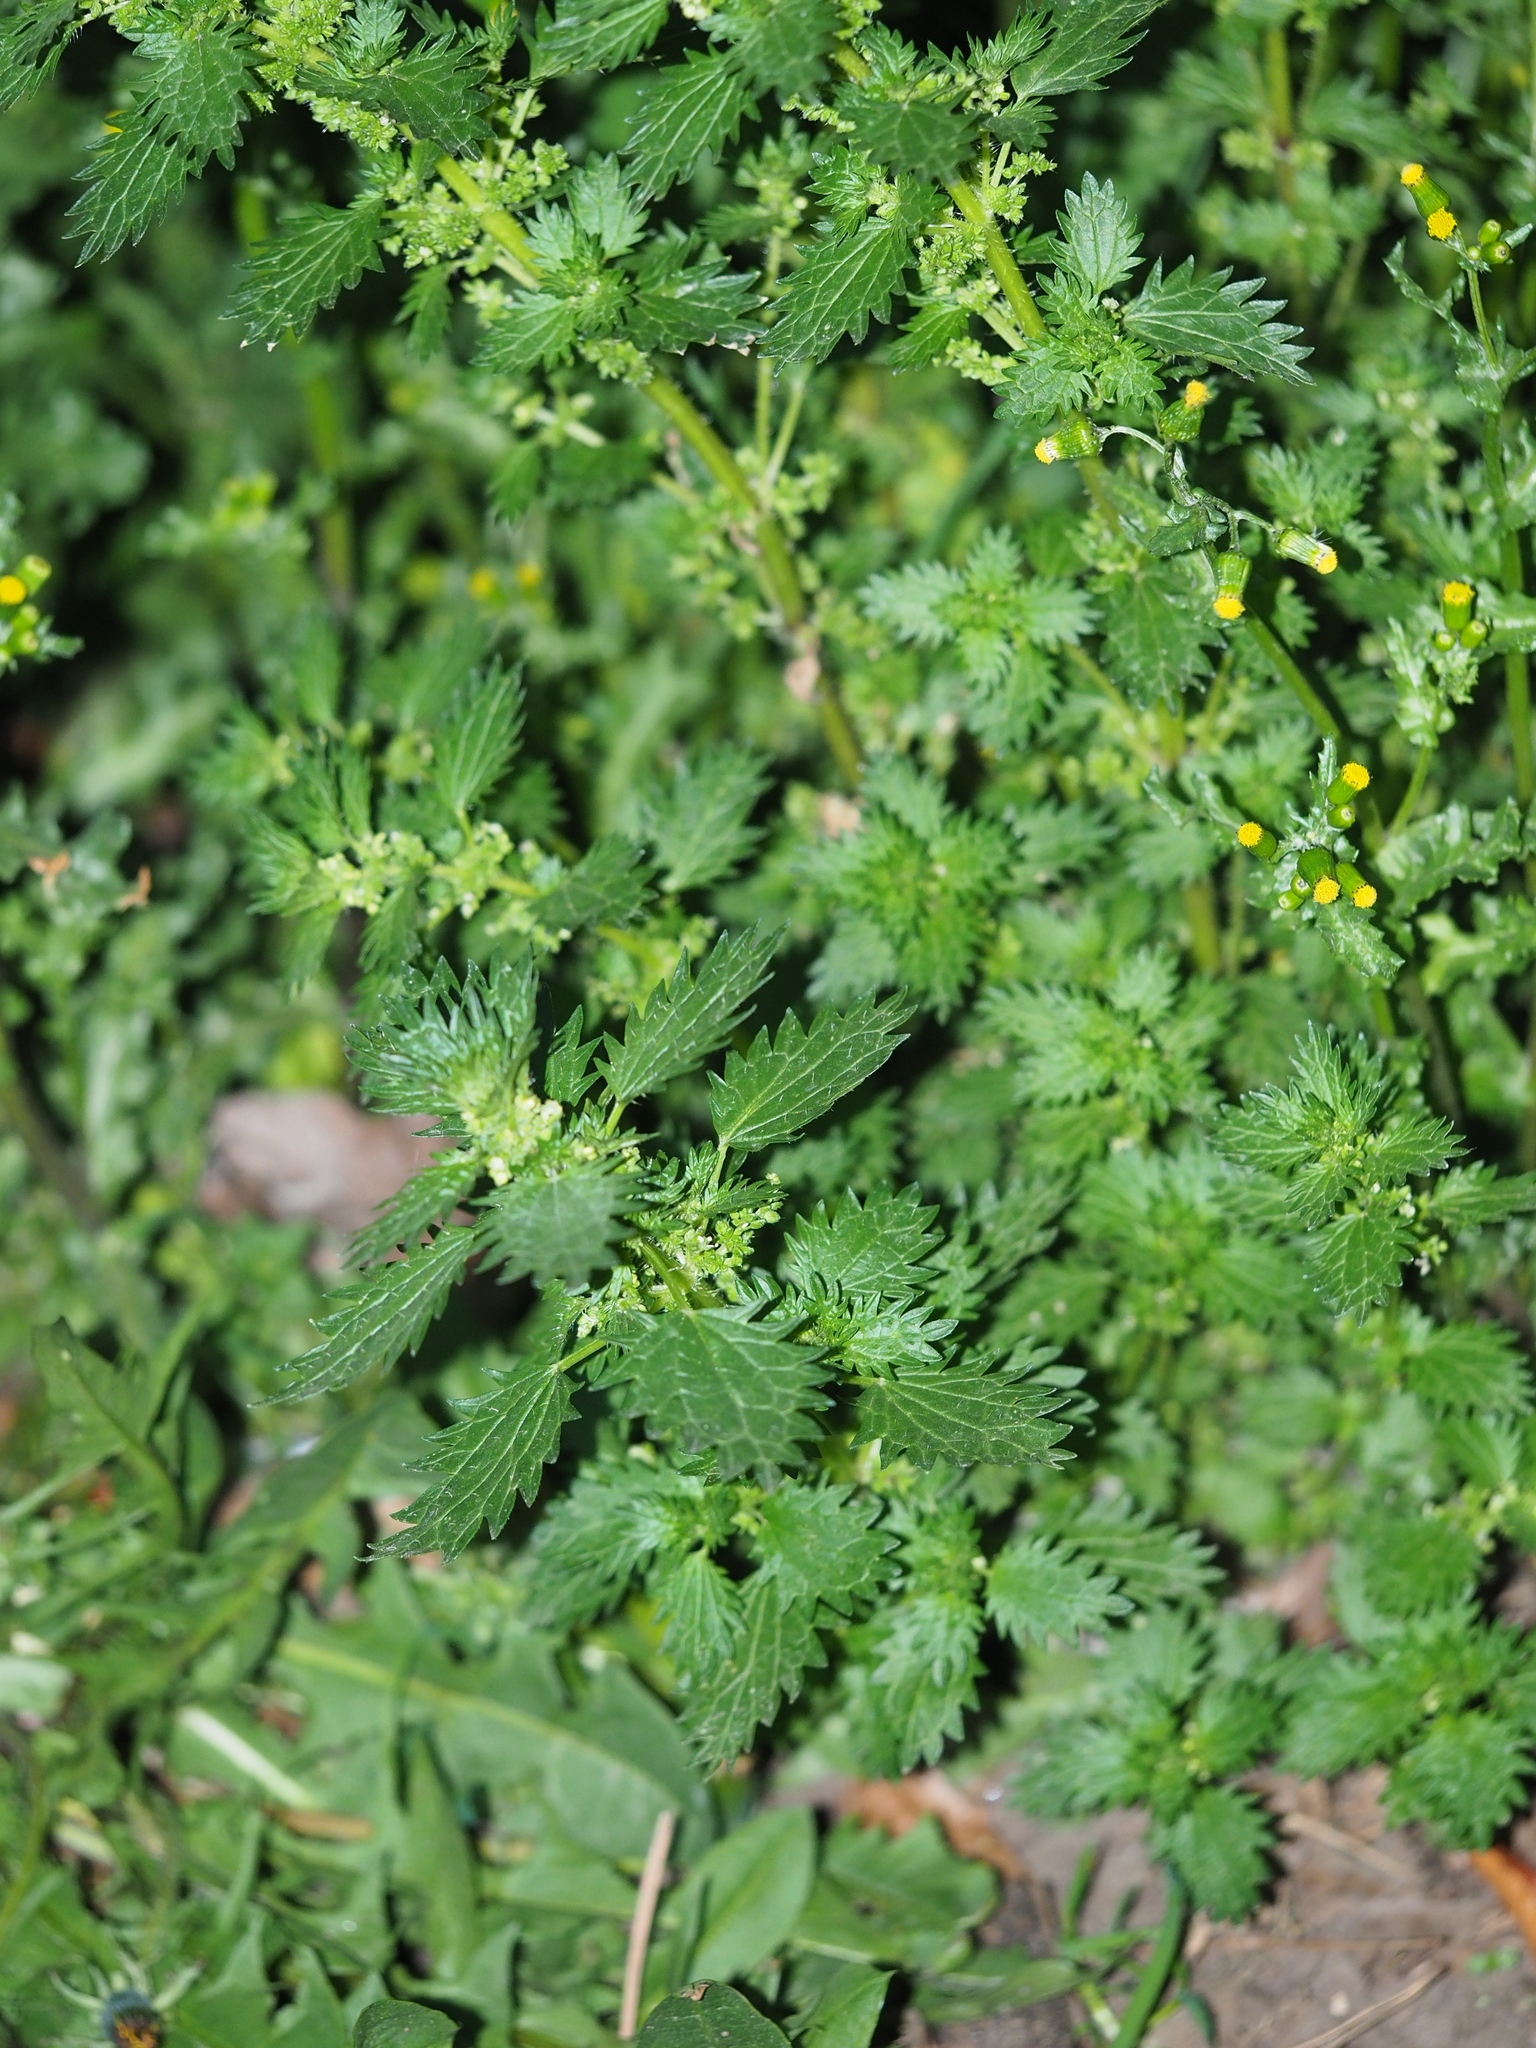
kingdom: Plantae
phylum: Tracheophyta
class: Magnoliopsida
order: Rosales
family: Urticaceae
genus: Urtica
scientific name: Urtica urens
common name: Dwarf nettle
